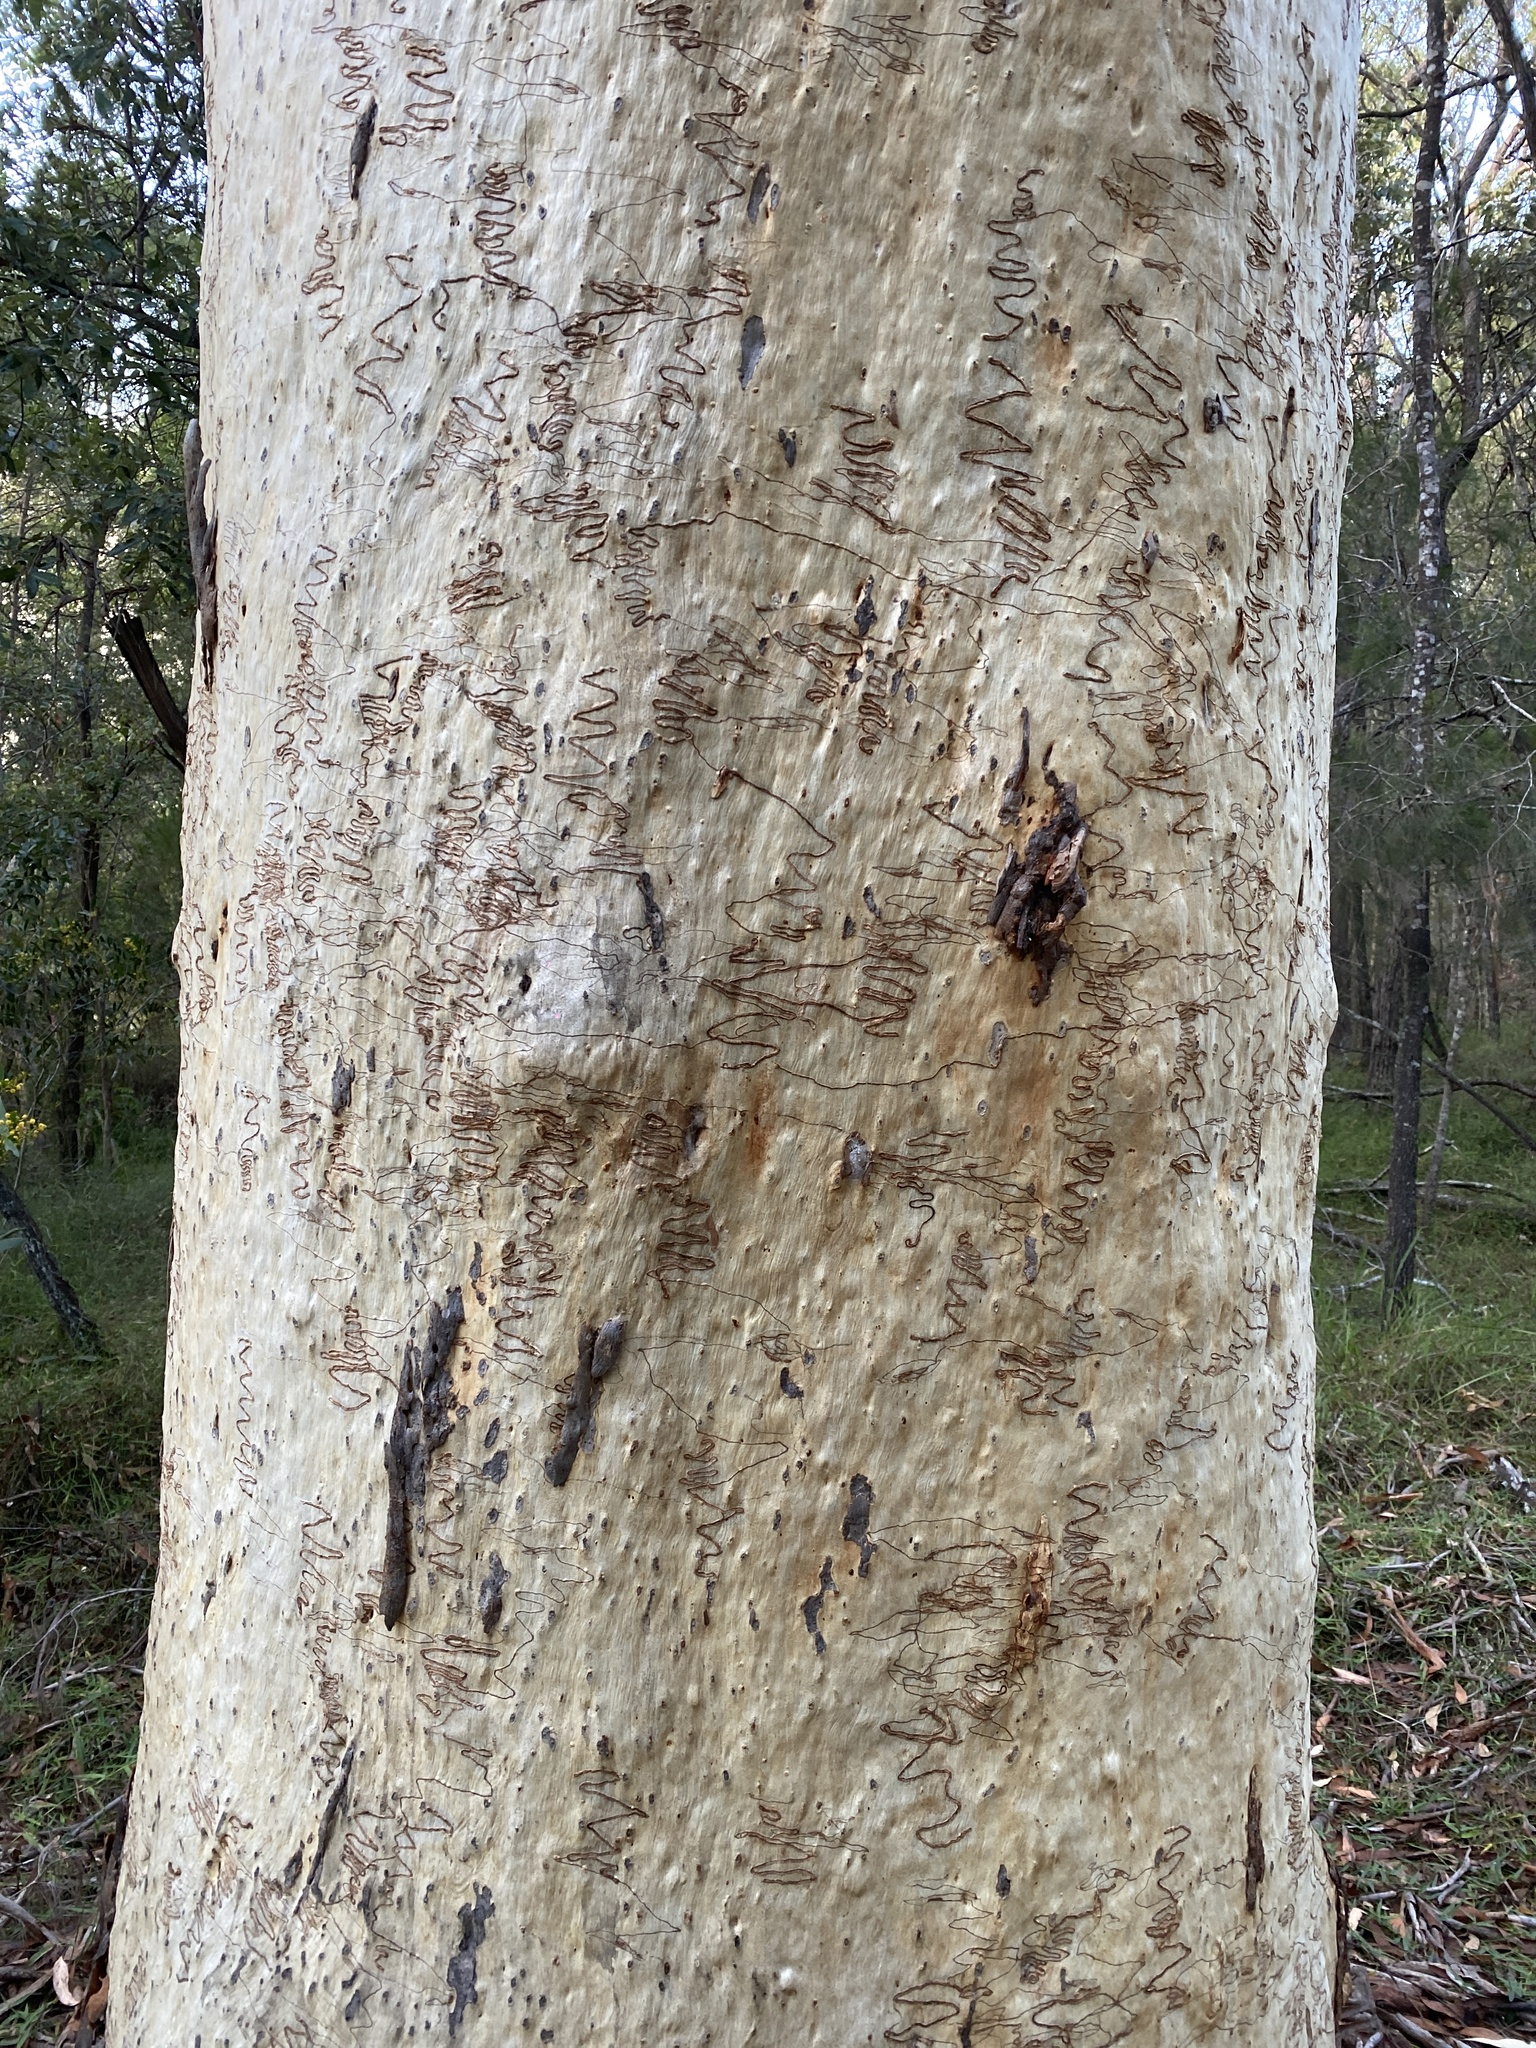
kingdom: Plantae
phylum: Tracheophyta
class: Magnoliopsida
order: Myrtales
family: Myrtaceae
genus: Eucalyptus
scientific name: Eucalyptus racemosa
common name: Scribbly gum
